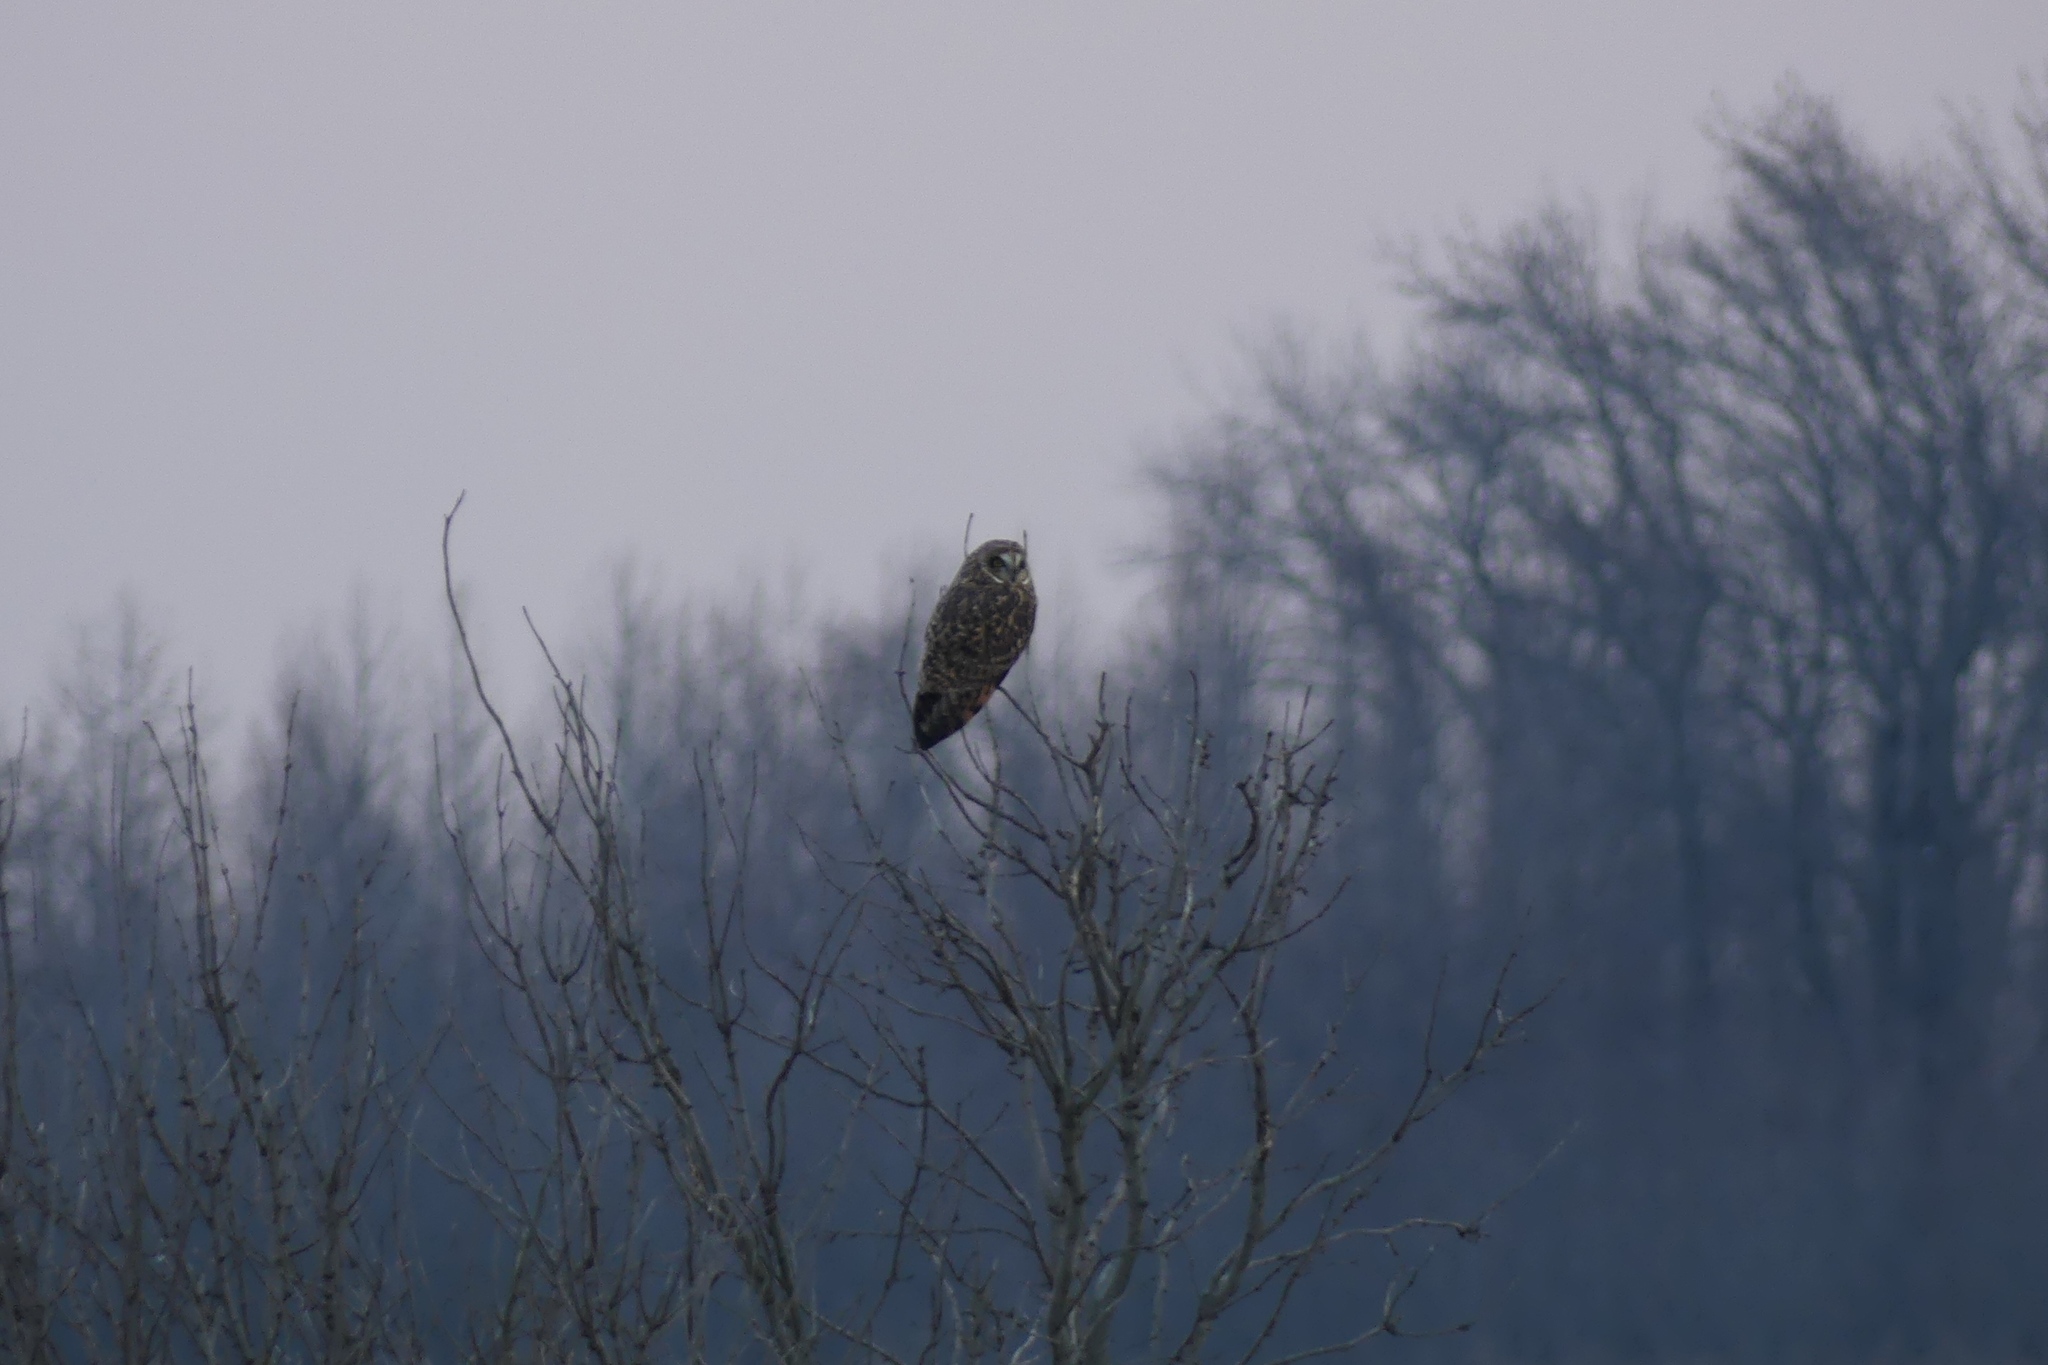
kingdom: Animalia
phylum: Chordata
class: Aves
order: Strigiformes
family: Strigidae
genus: Asio
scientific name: Asio flammeus
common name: Short-eared owl
